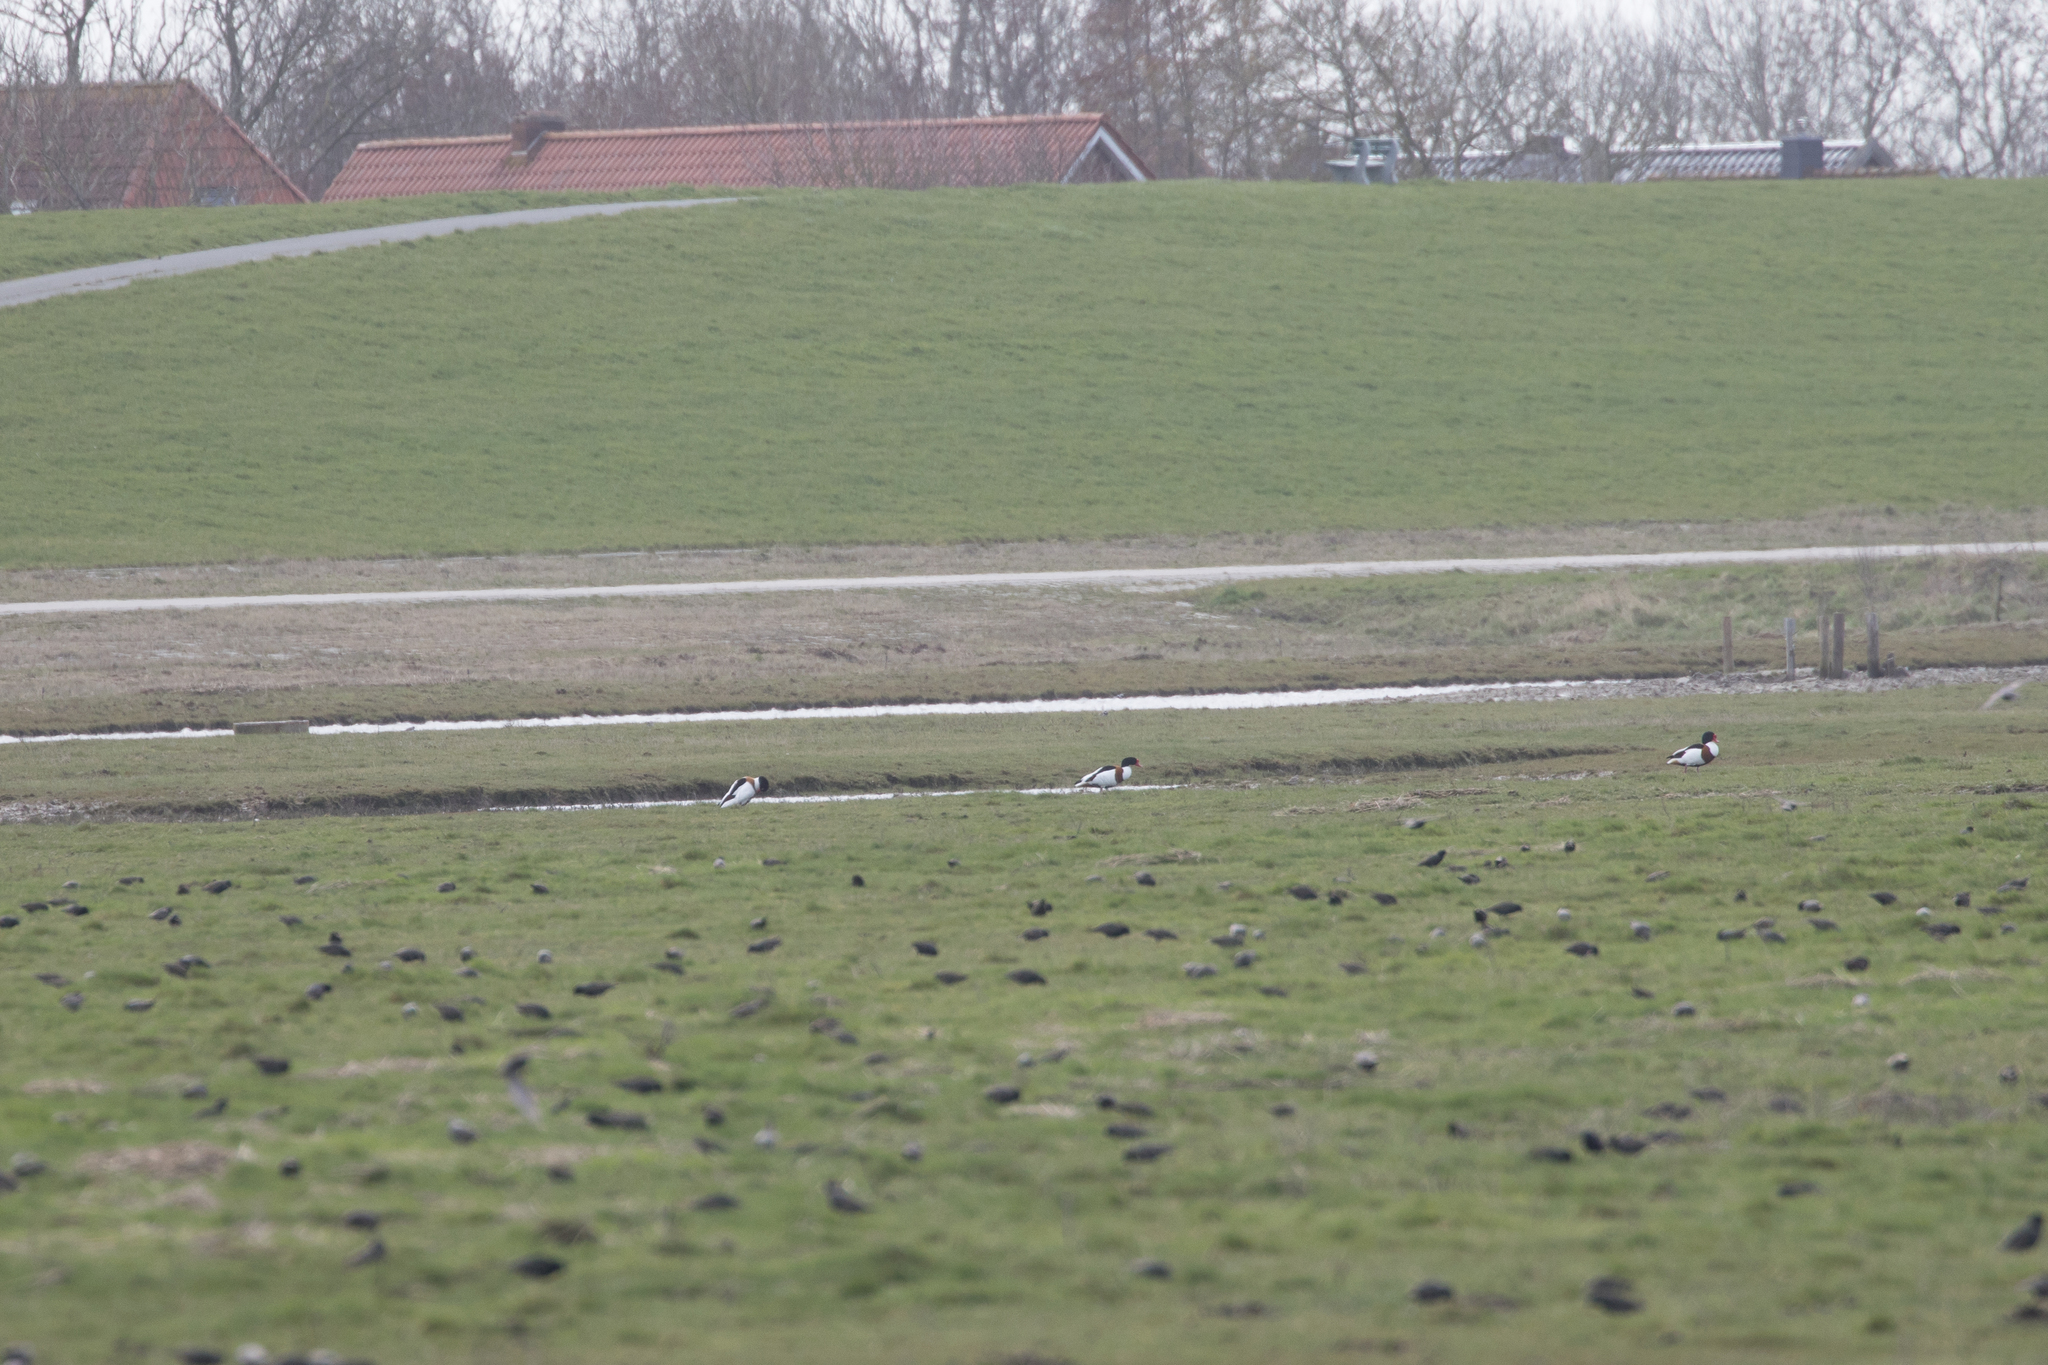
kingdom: Animalia
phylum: Chordata
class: Aves
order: Anseriformes
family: Anatidae
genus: Tadorna
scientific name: Tadorna tadorna
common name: Common shelduck
